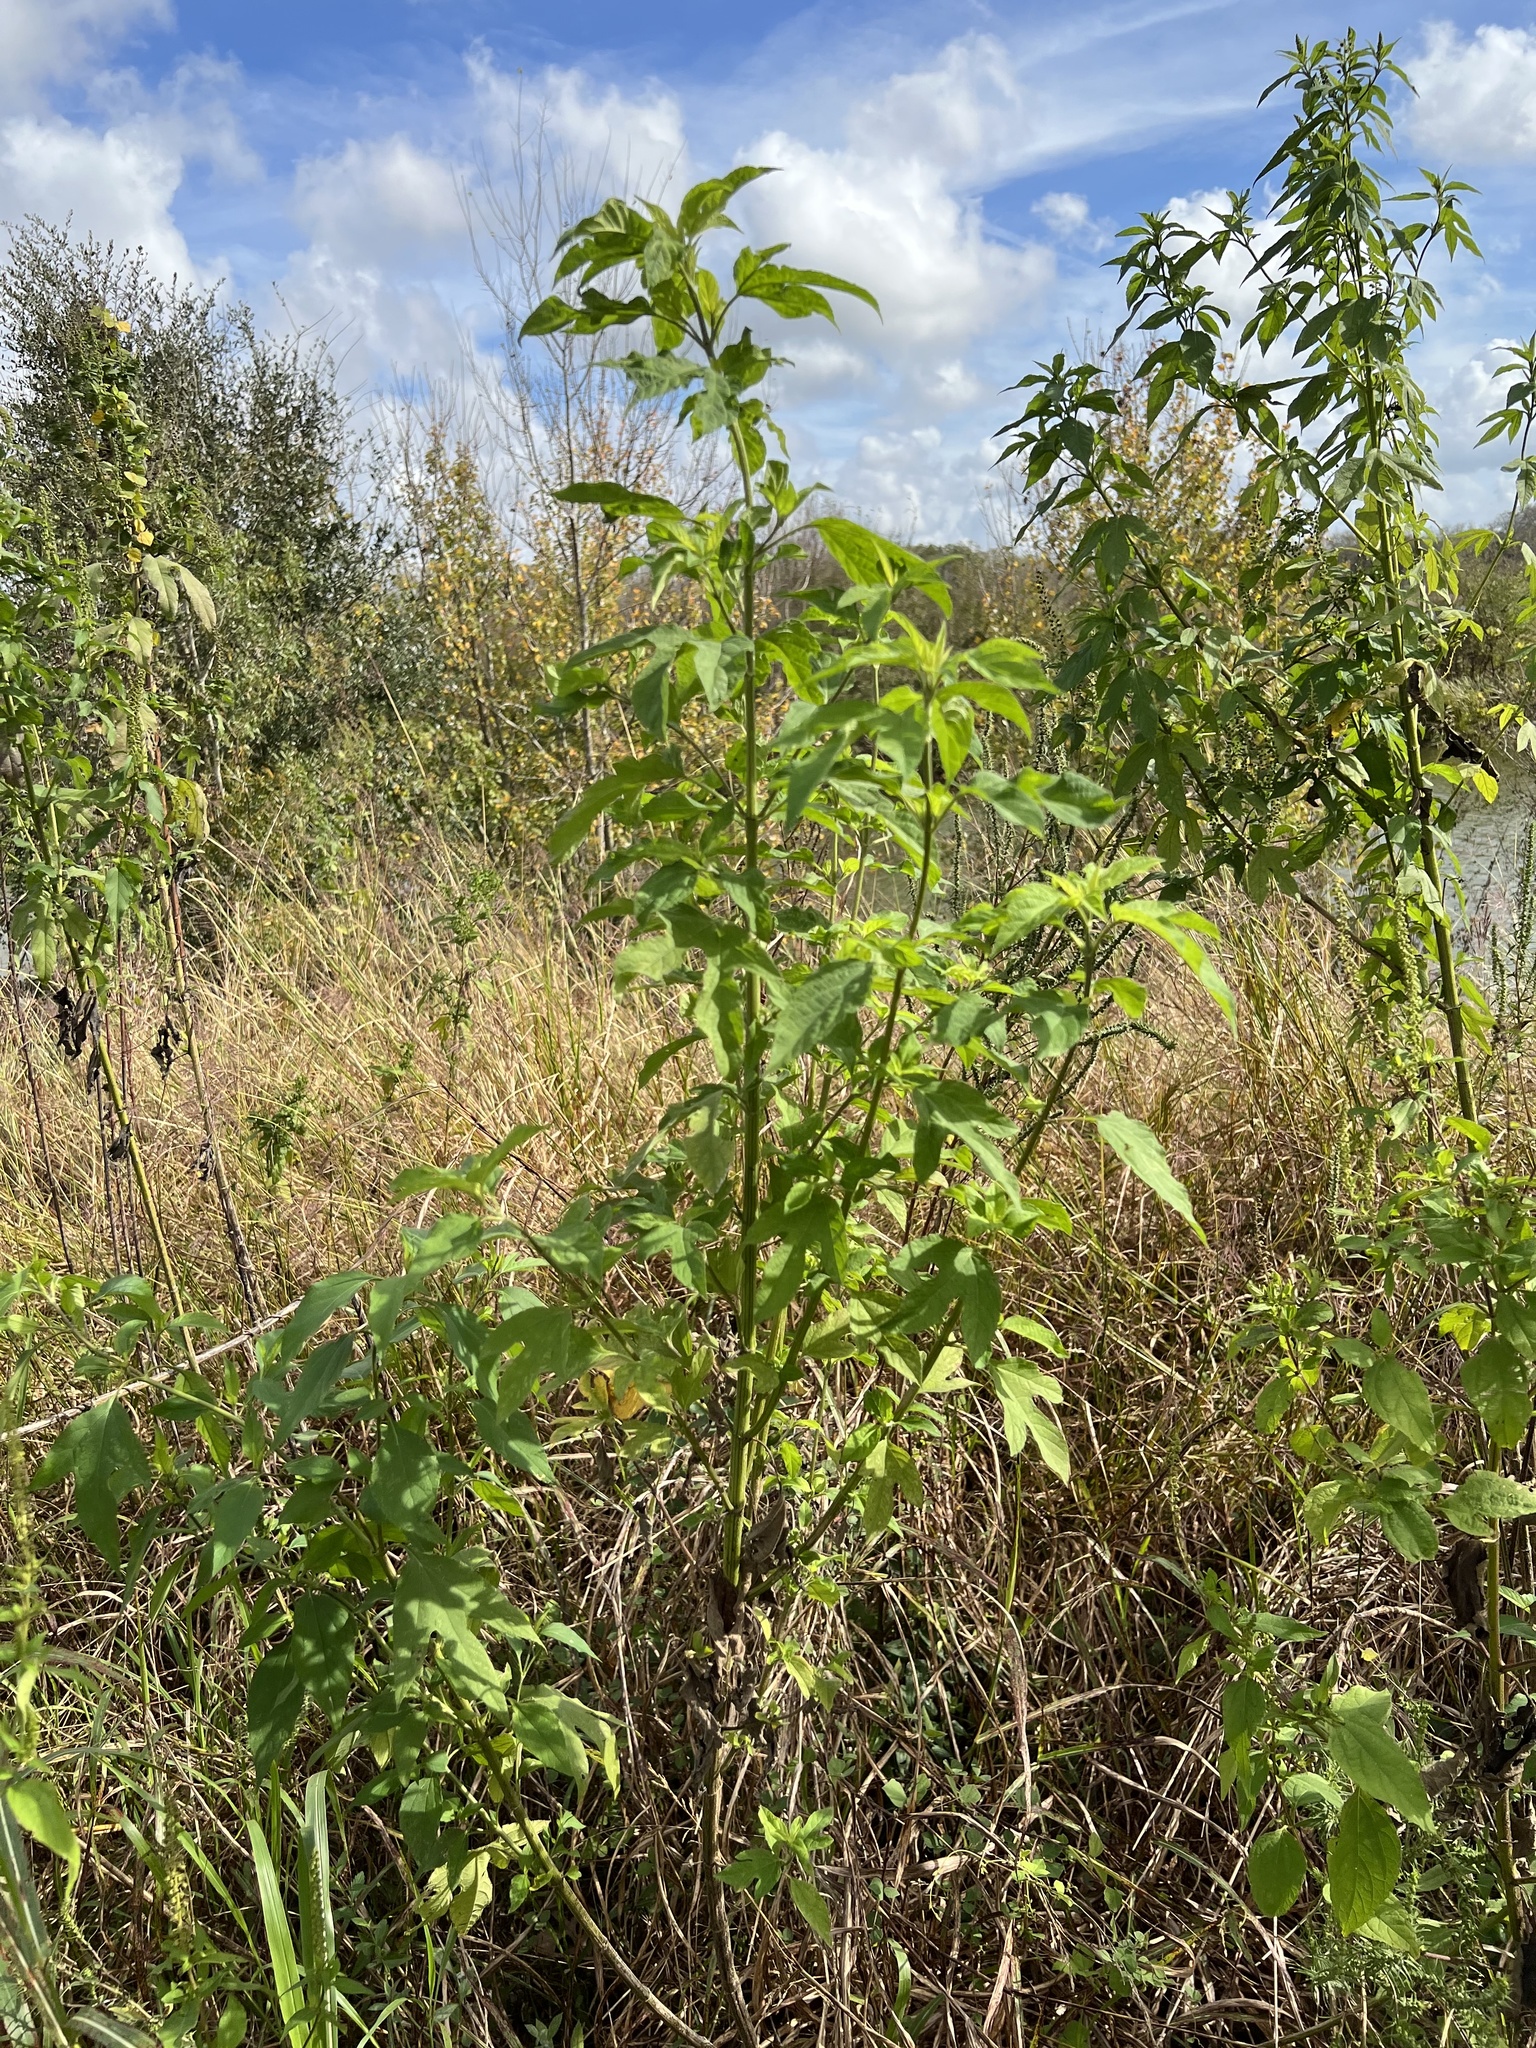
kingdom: Plantae
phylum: Tracheophyta
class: Magnoliopsida
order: Asterales
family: Asteraceae
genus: Ambrosia
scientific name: Ambrosia trifida
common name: Giant ragweed
